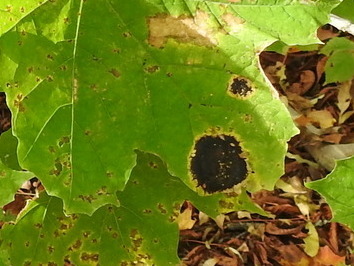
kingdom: Fungi
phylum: Ascomycota
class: Leotiomycetes
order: Rhytismatales
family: Rhytismataceae
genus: Rhytisma
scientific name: Rhytisma acerinum
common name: European tar spot
